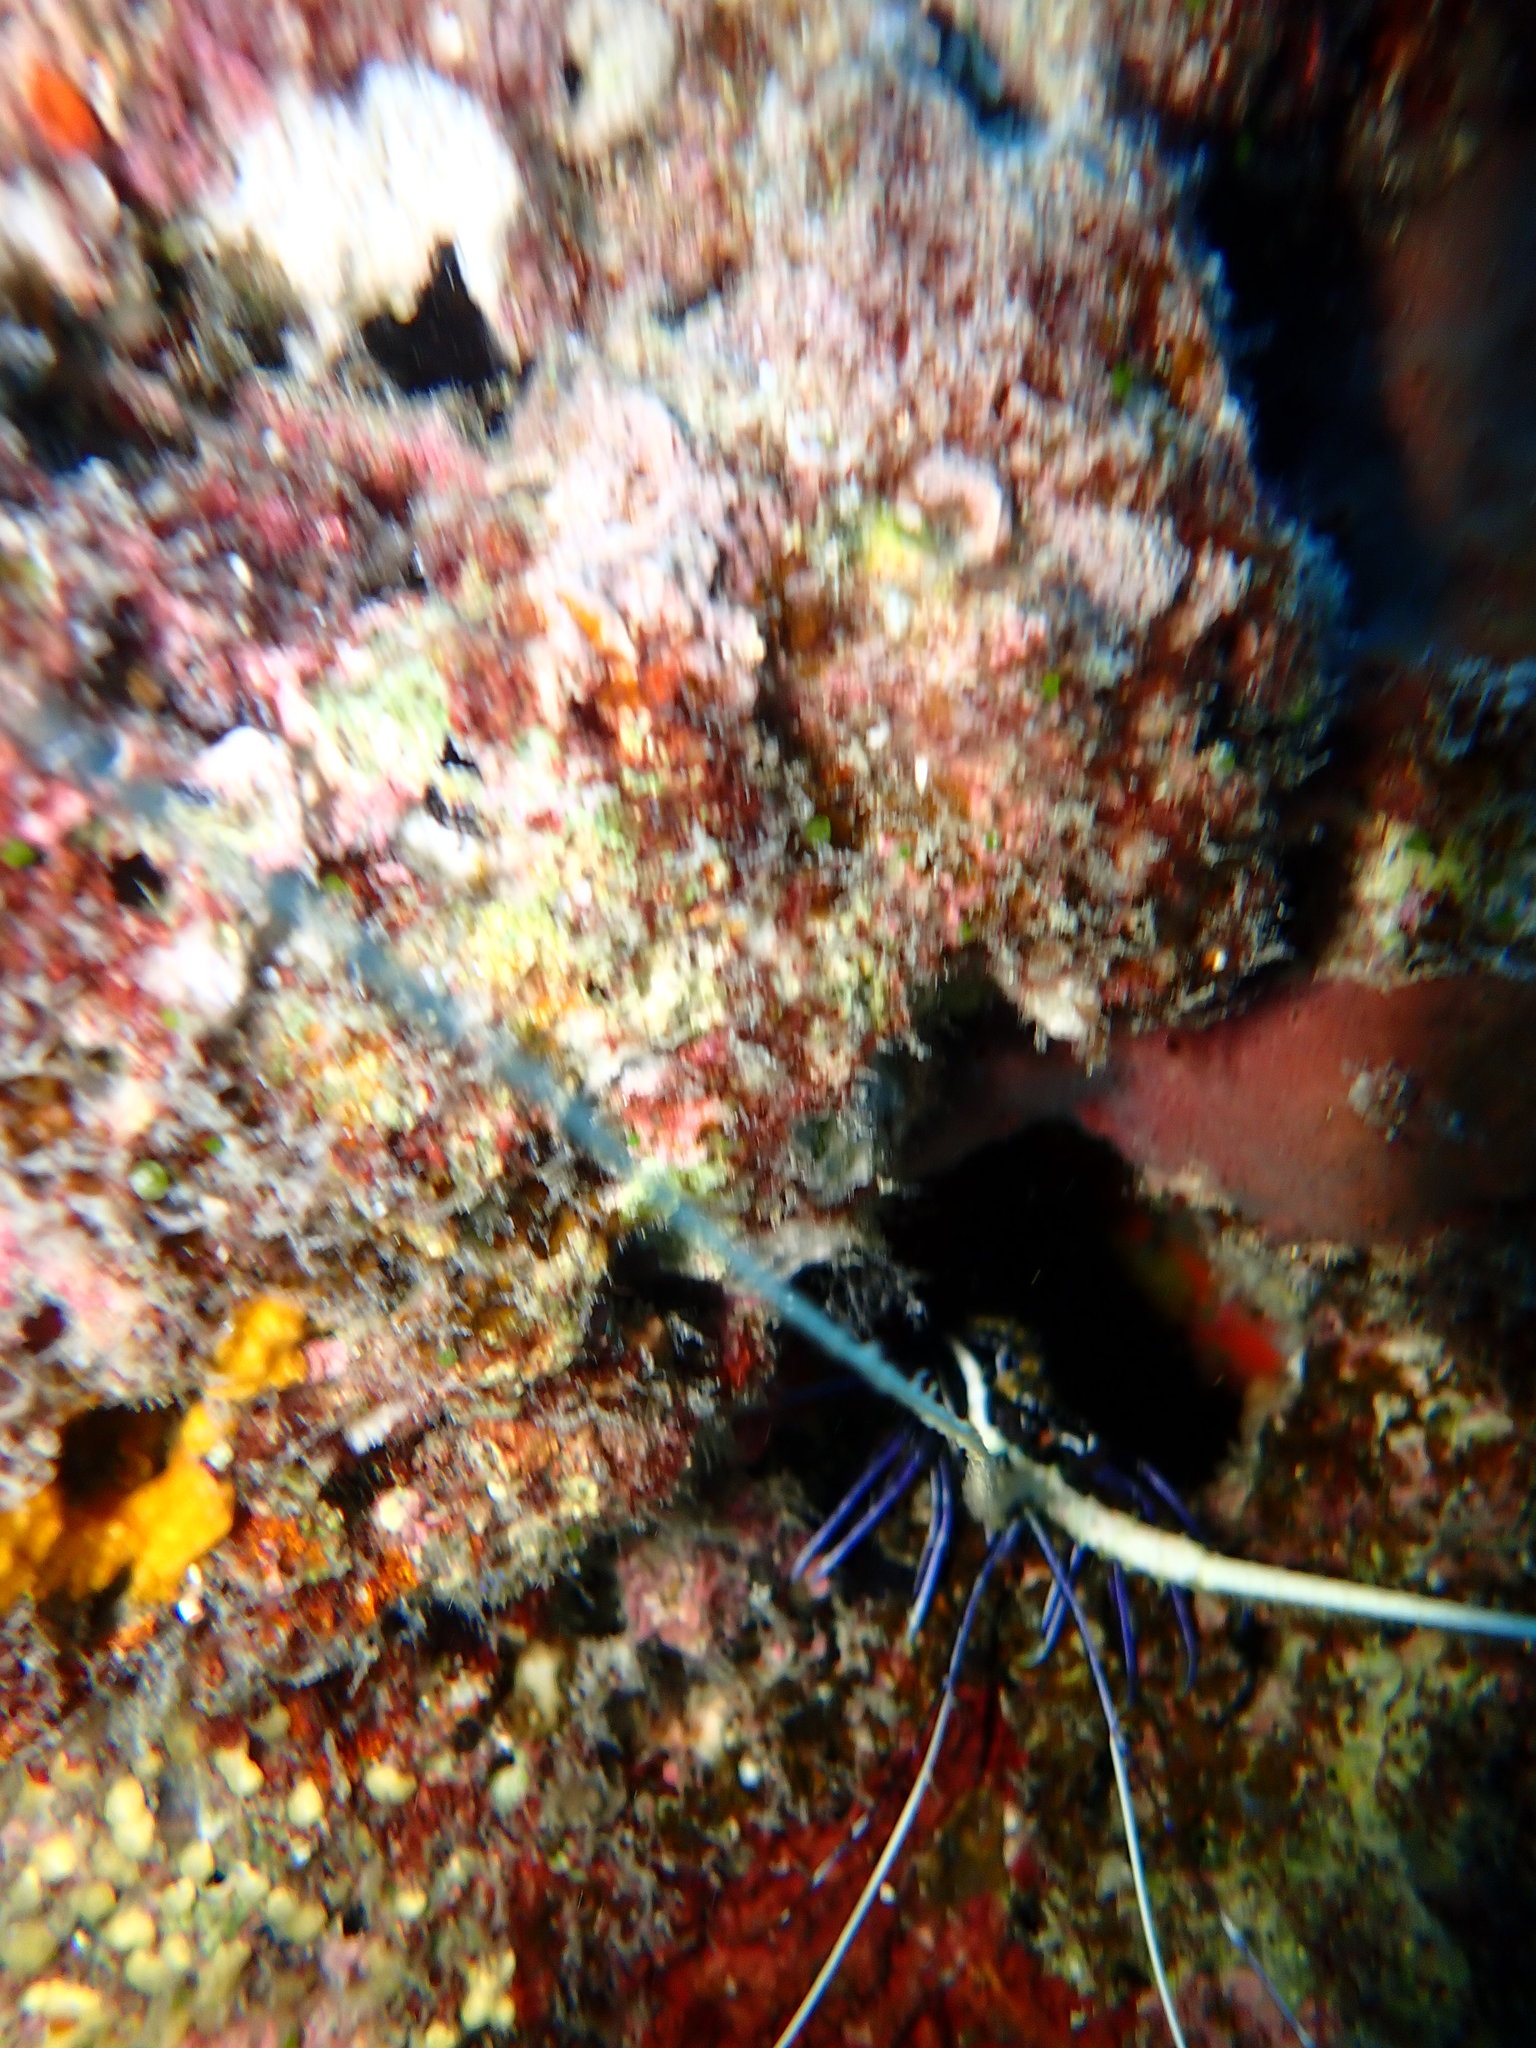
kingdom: Animalia
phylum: Arthropoda
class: Malacostraca
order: Decapoda
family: Palinuridae
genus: Panulirus
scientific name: Panulirus versicolor
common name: Painted spiny lobster
